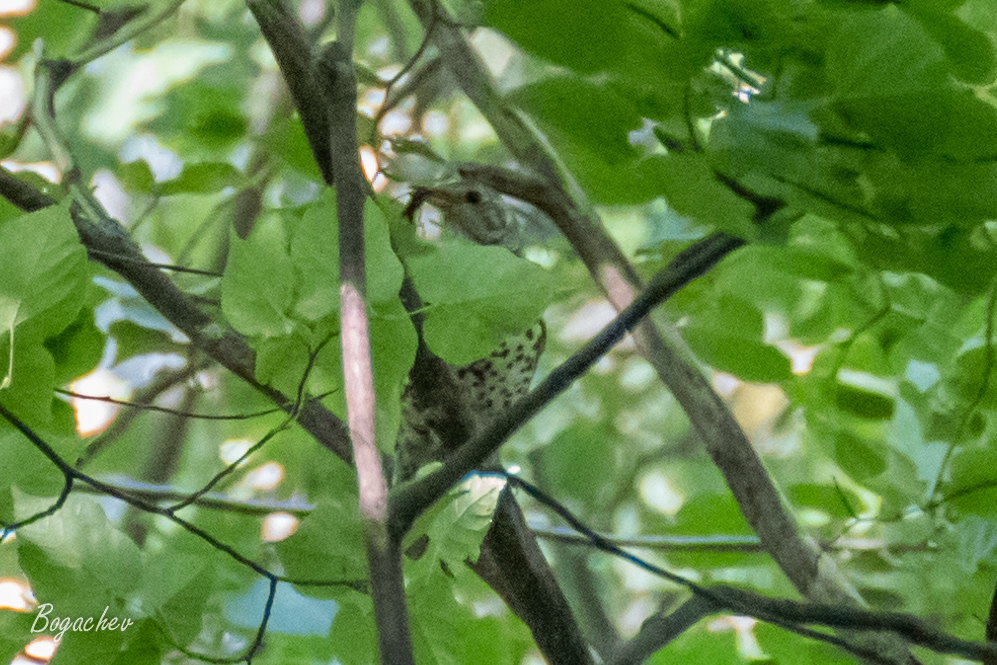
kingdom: Animalia
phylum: Chordata
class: Aves
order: Passeriformes
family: Turdidae
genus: Turdus
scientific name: Turdus viscivorus
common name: Mistle thrush
